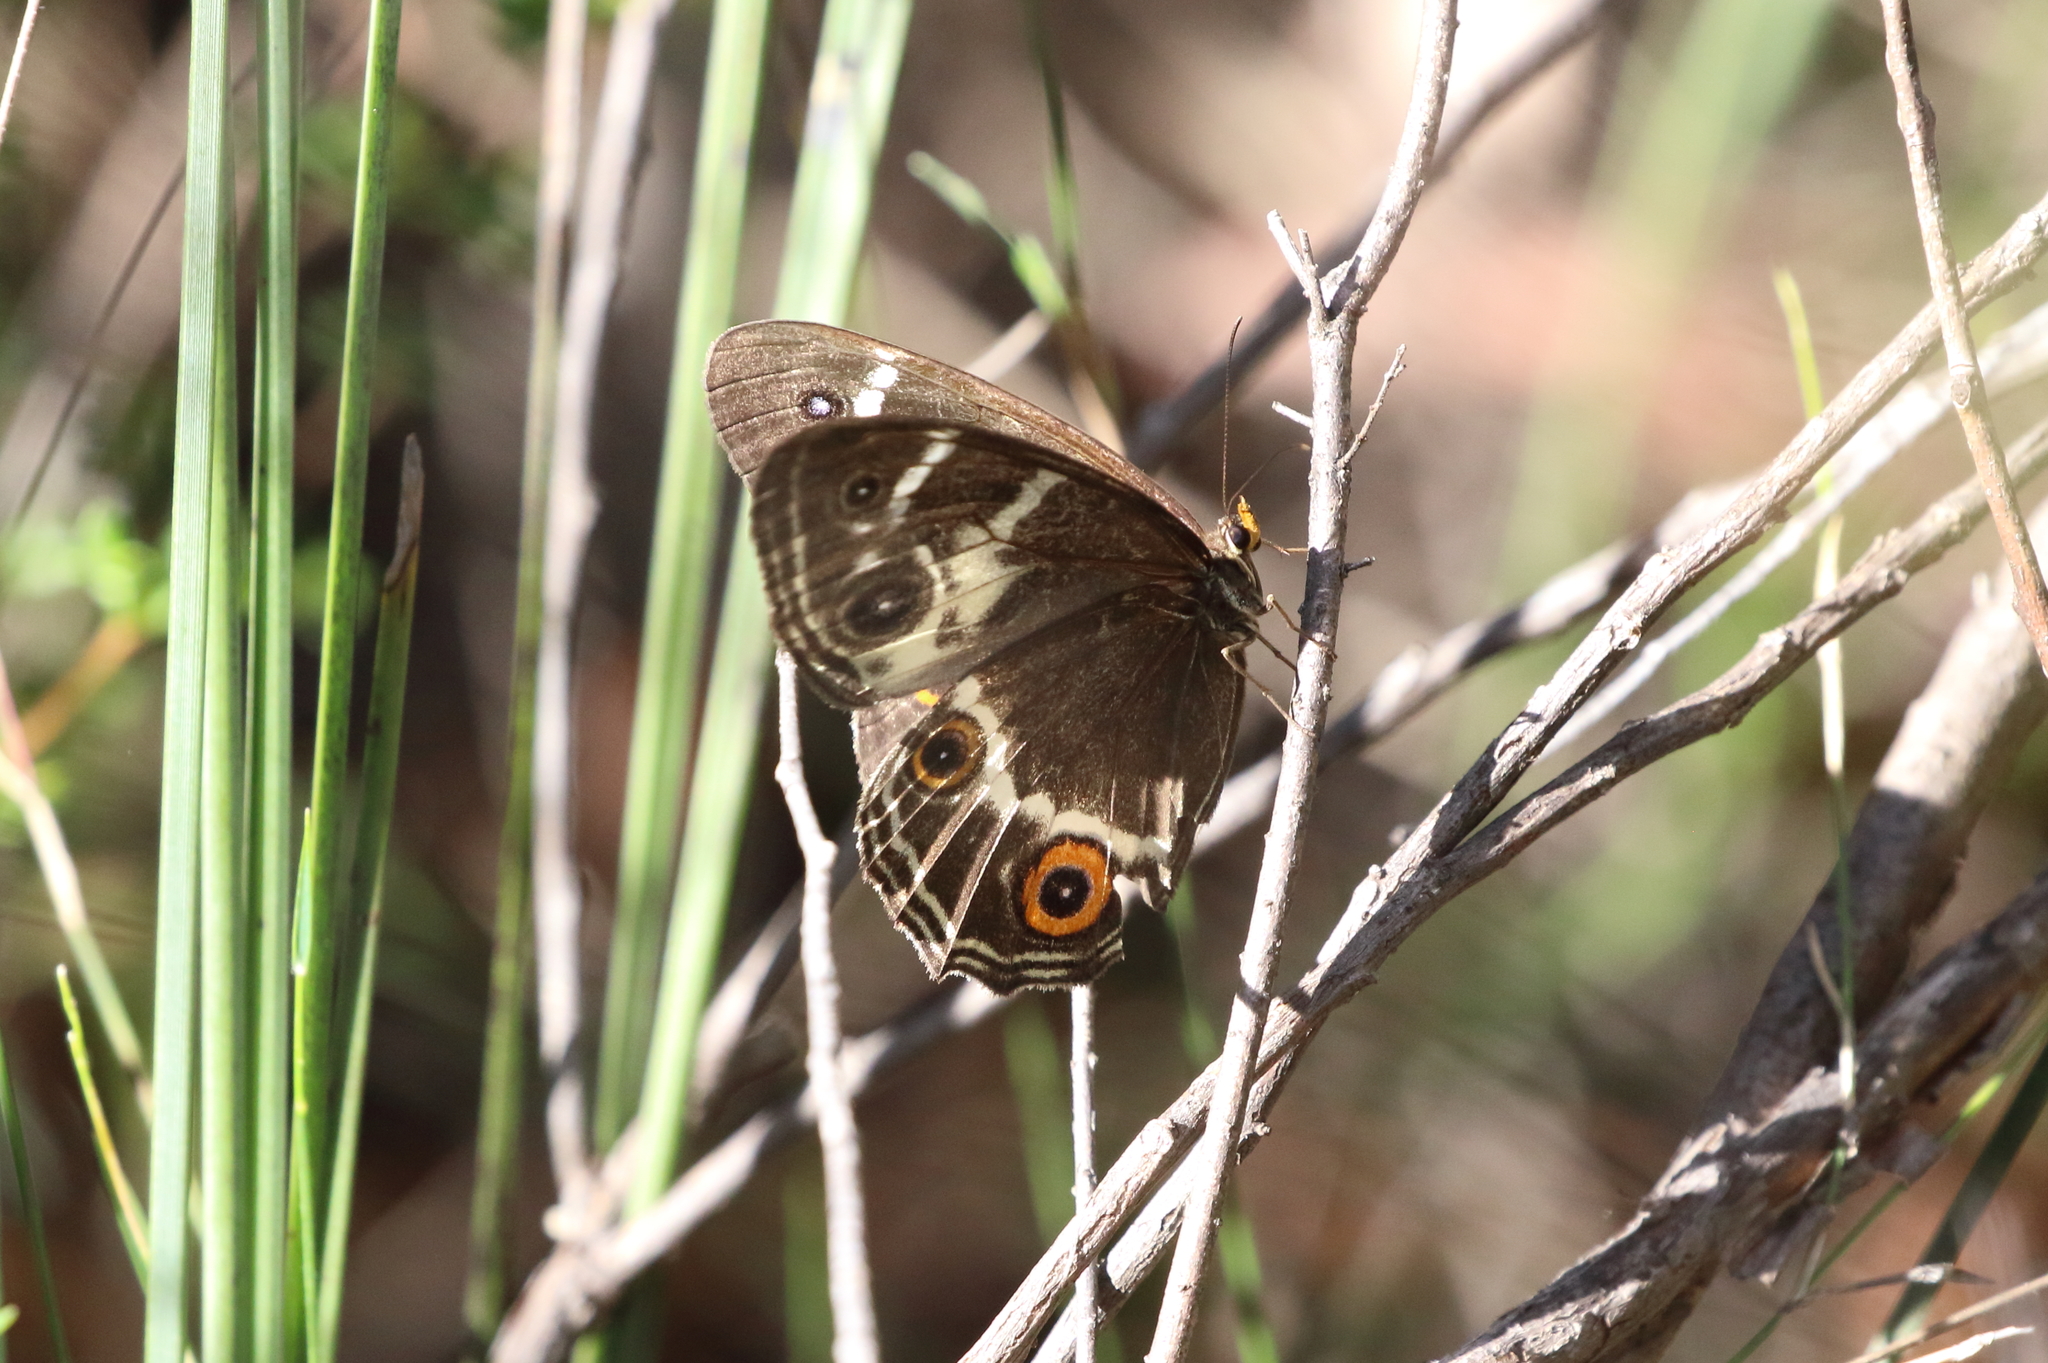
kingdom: Animalia
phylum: Arthropoda
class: Insecta
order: Lepidoptera
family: Nymphalidae
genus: Tisiphone
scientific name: Tisiphone abeona
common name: Swordgrass brown
